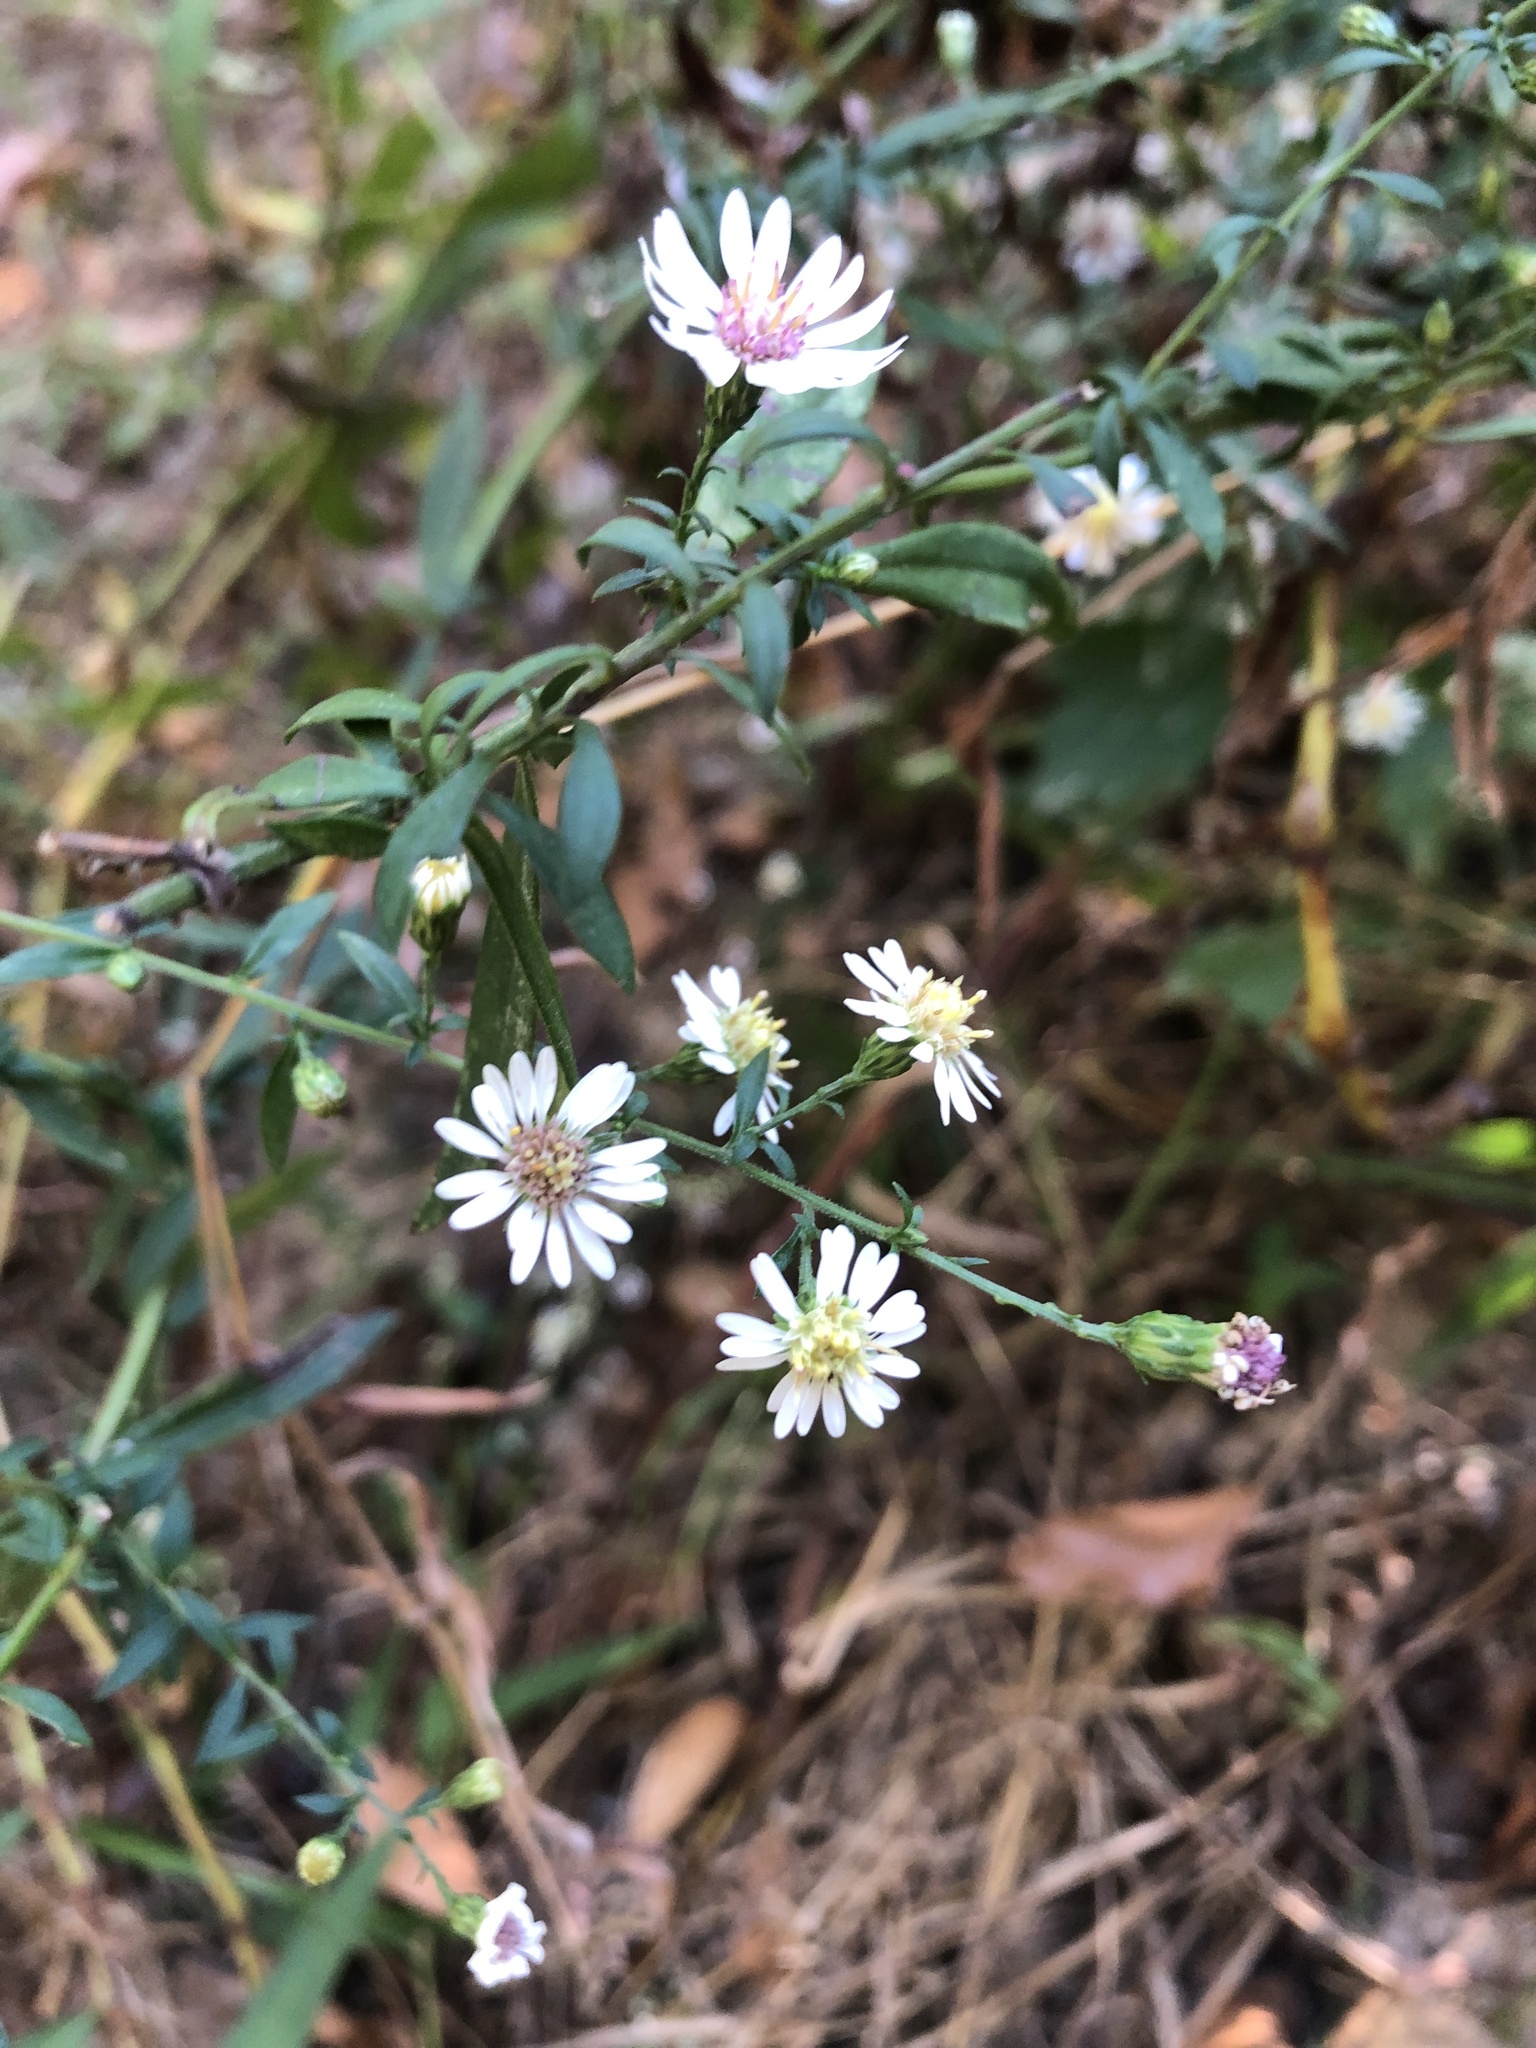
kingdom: Plantae
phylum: Tracheophyta
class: Magnoliopsida
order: Asterales
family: Asteraceae
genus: Symphyotrichum
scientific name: Symphyotrichum lateriflorum
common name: Calico aster
